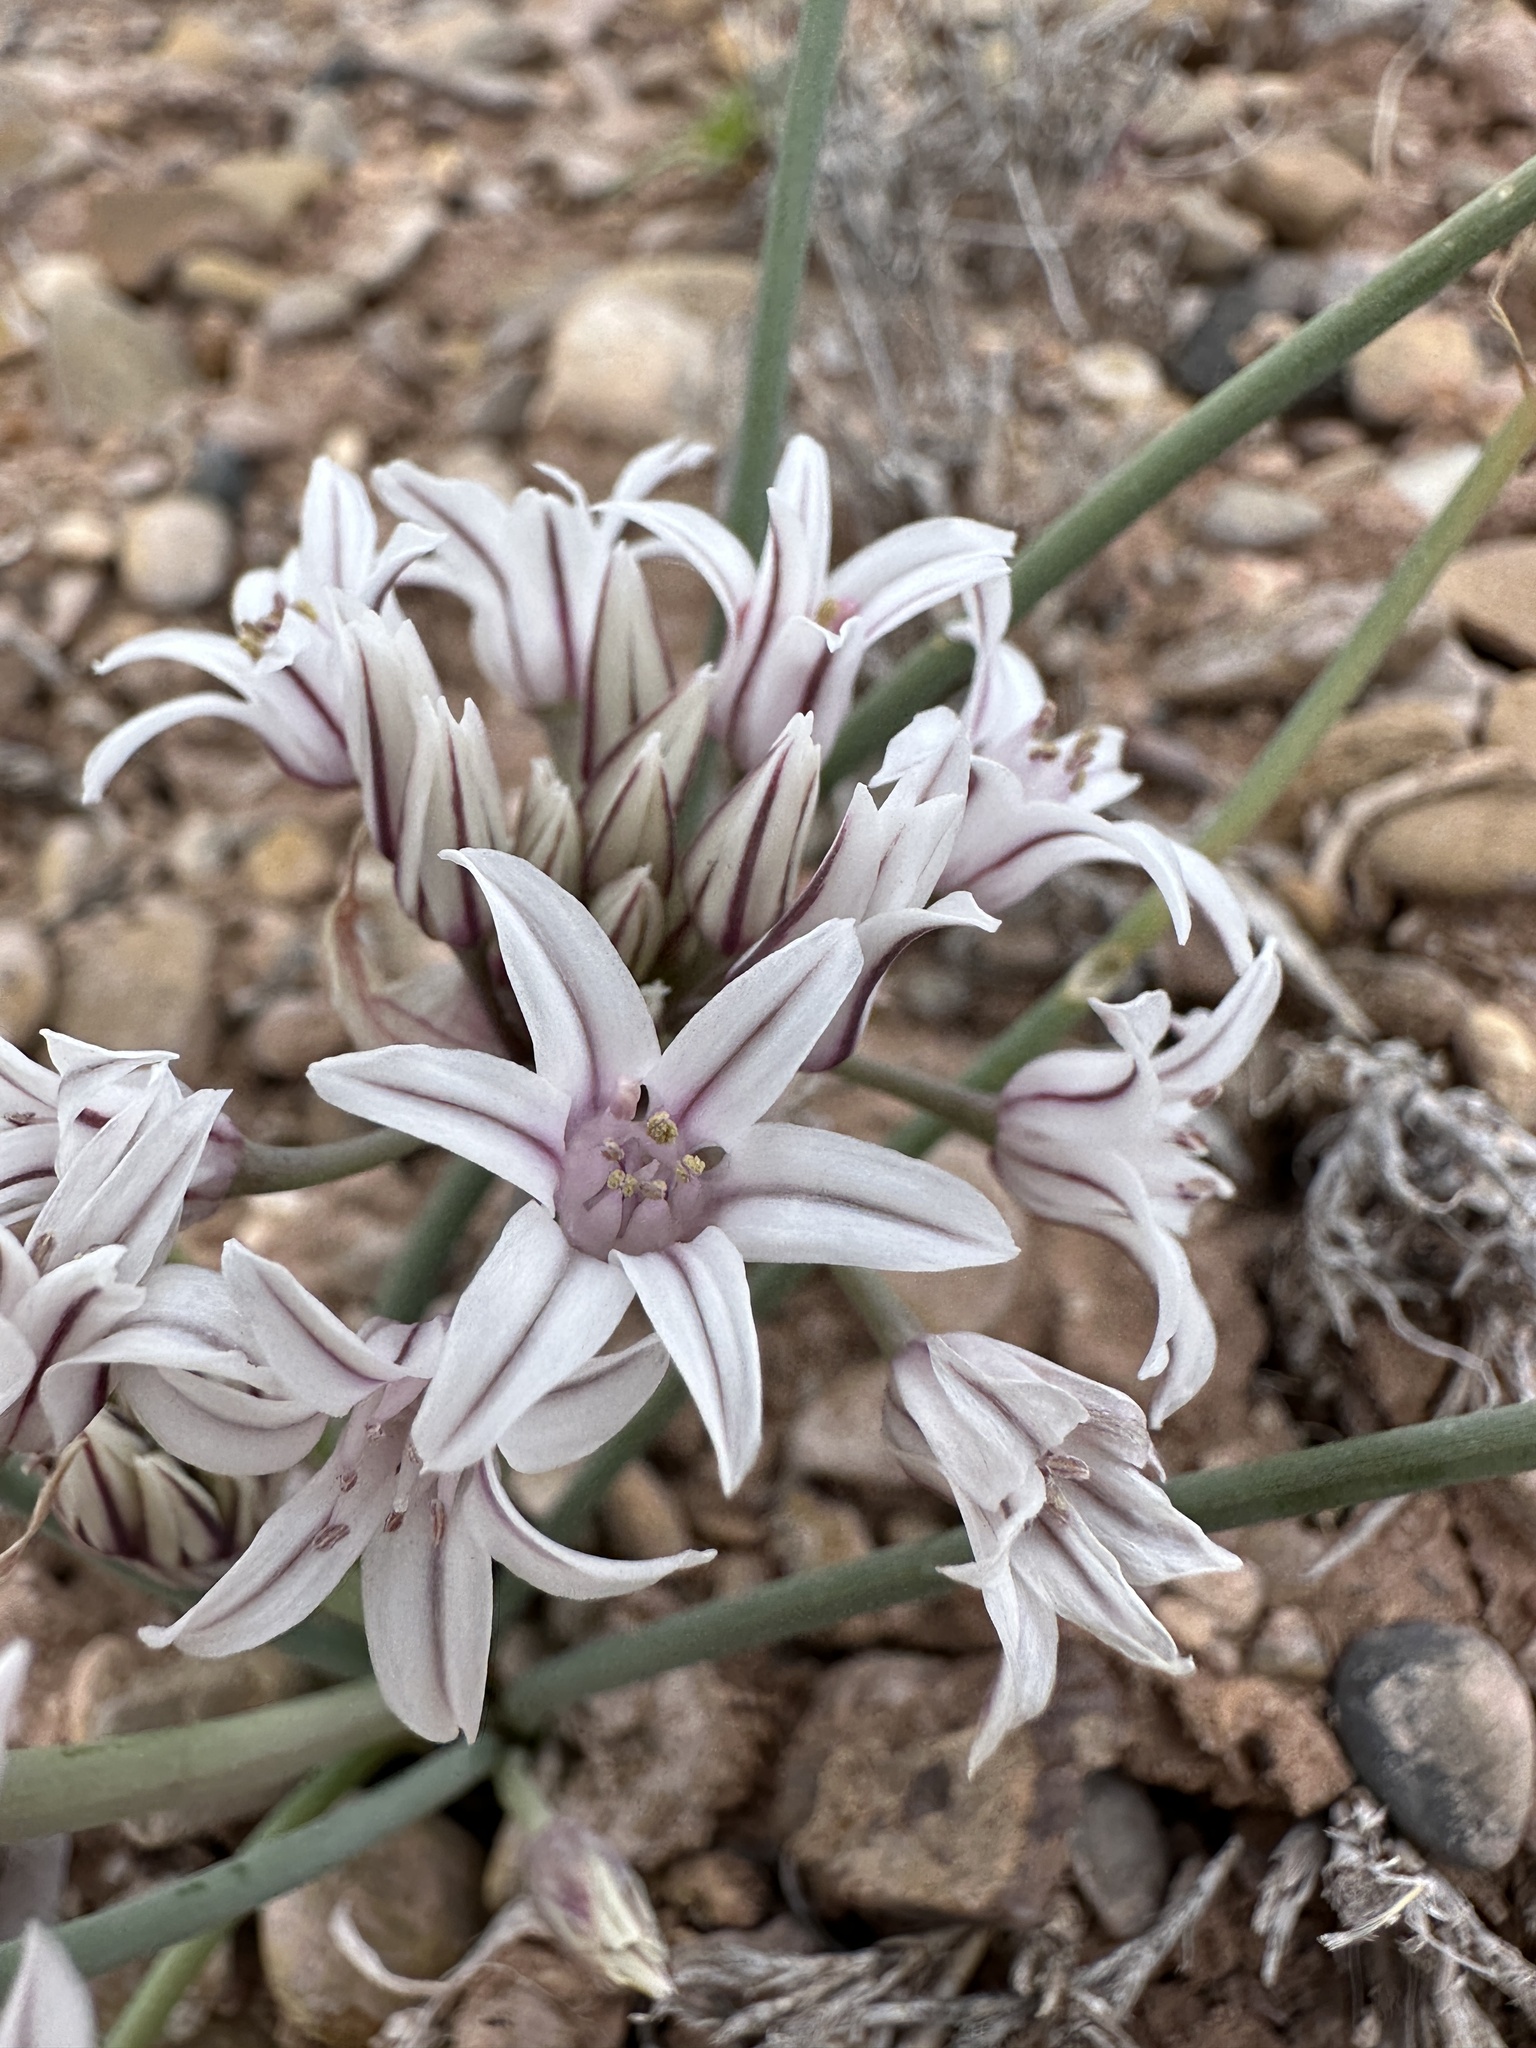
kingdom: Plantae
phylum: Tracheophyta
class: Liliopsida
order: Asparagales
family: Amaryllidaceae
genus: Allium
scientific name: Allium macropetalum
